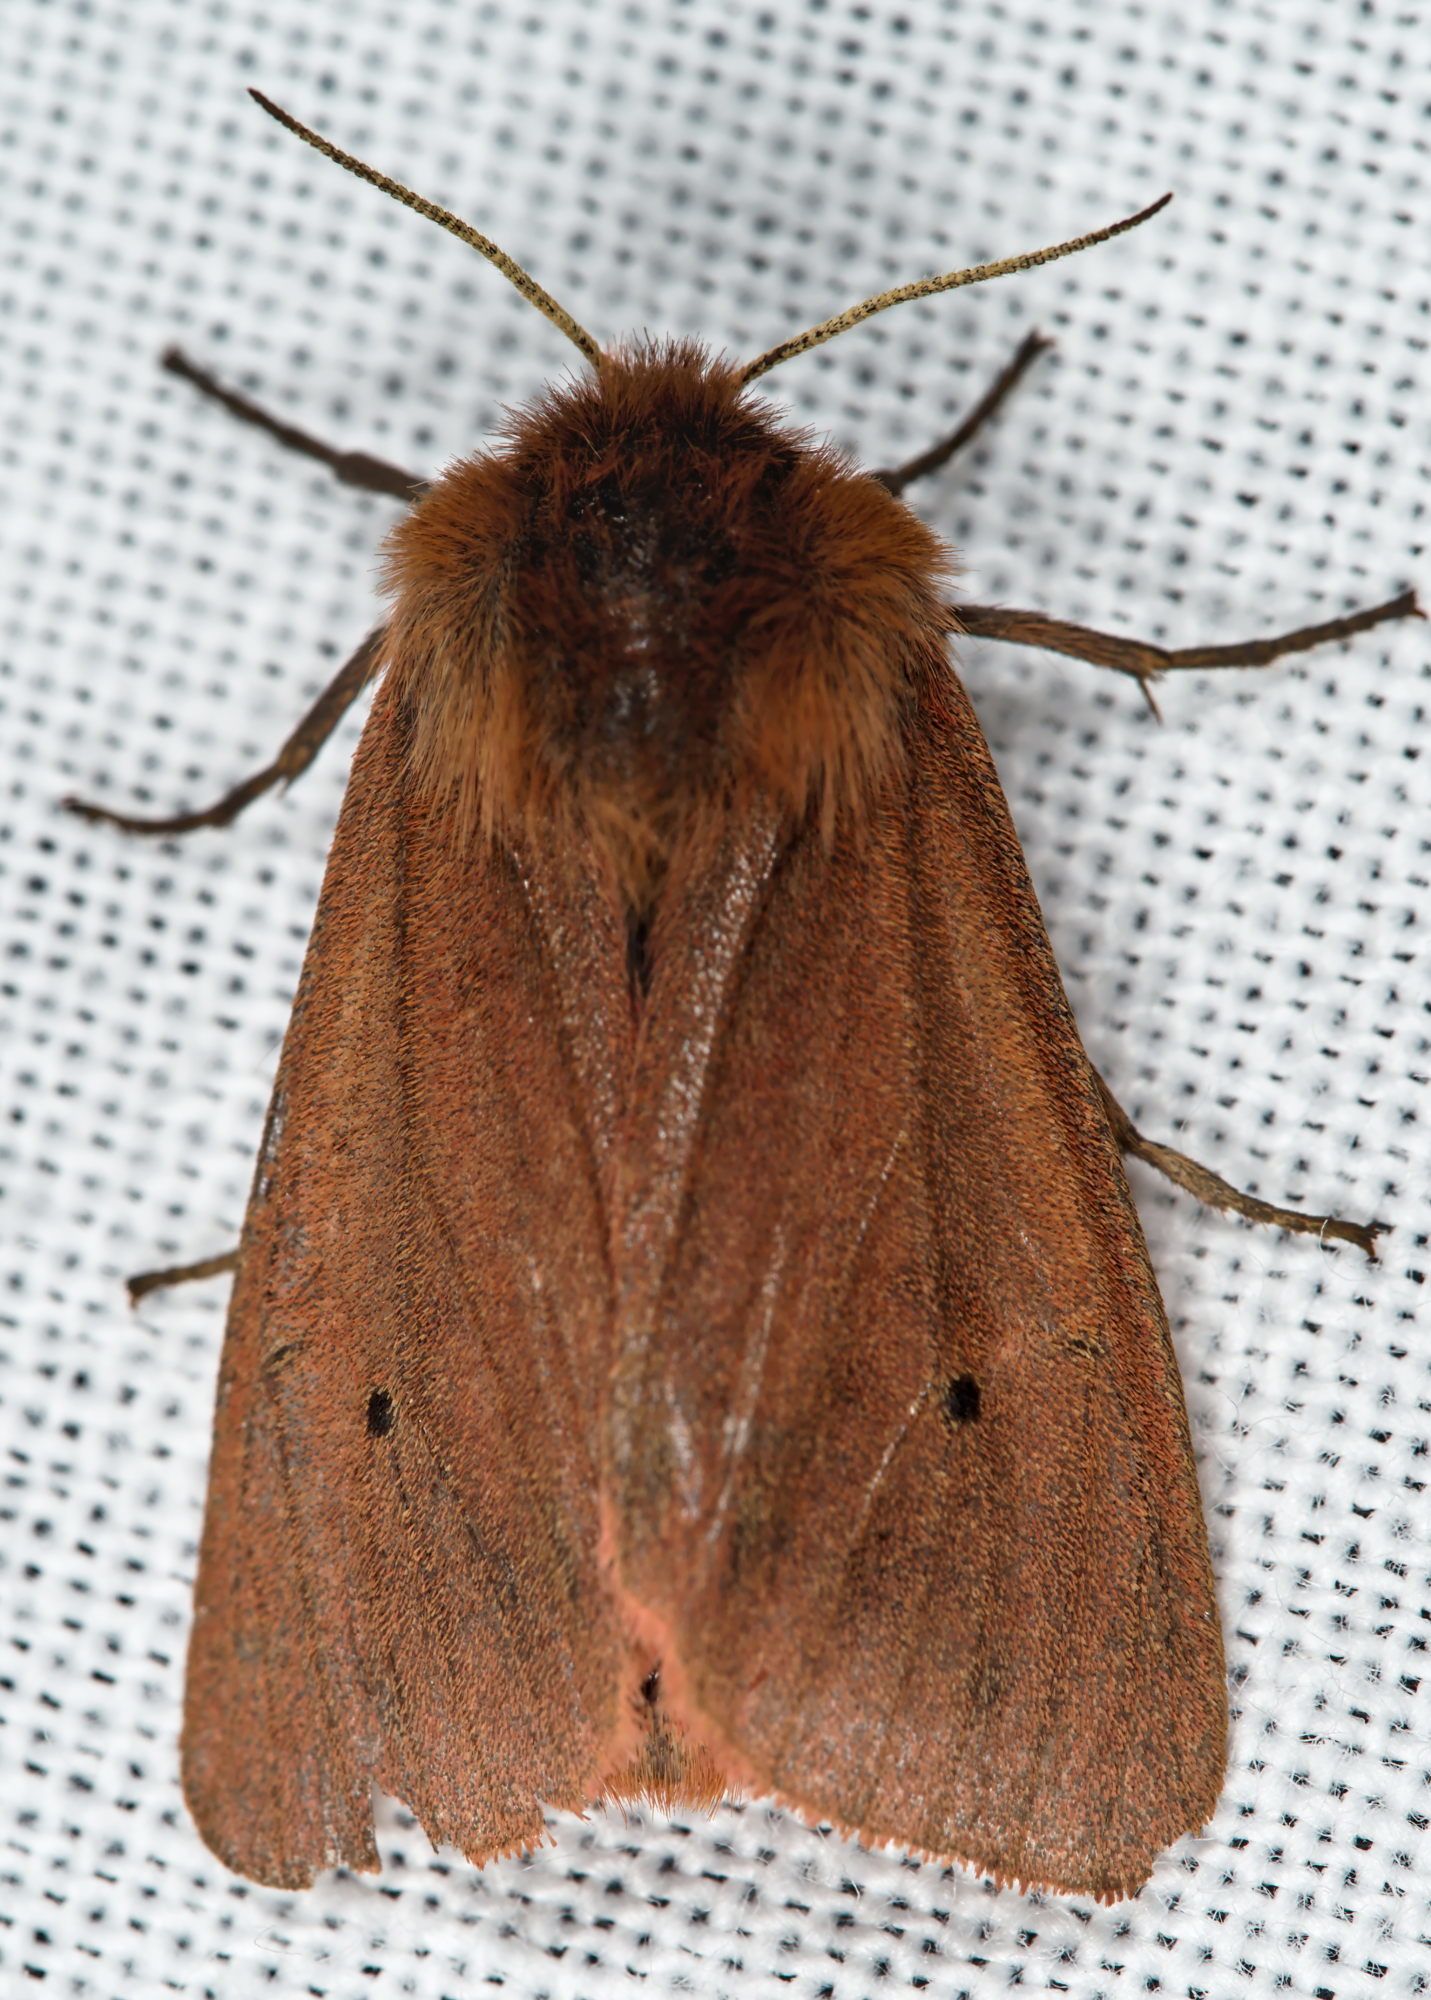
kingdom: Animalia
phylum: Arthropoda
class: Insecta
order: Lepidoptera
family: Erebidae
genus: Phragmatobia
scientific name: Phragmatobia fuliginosa
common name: Ruby tiger
